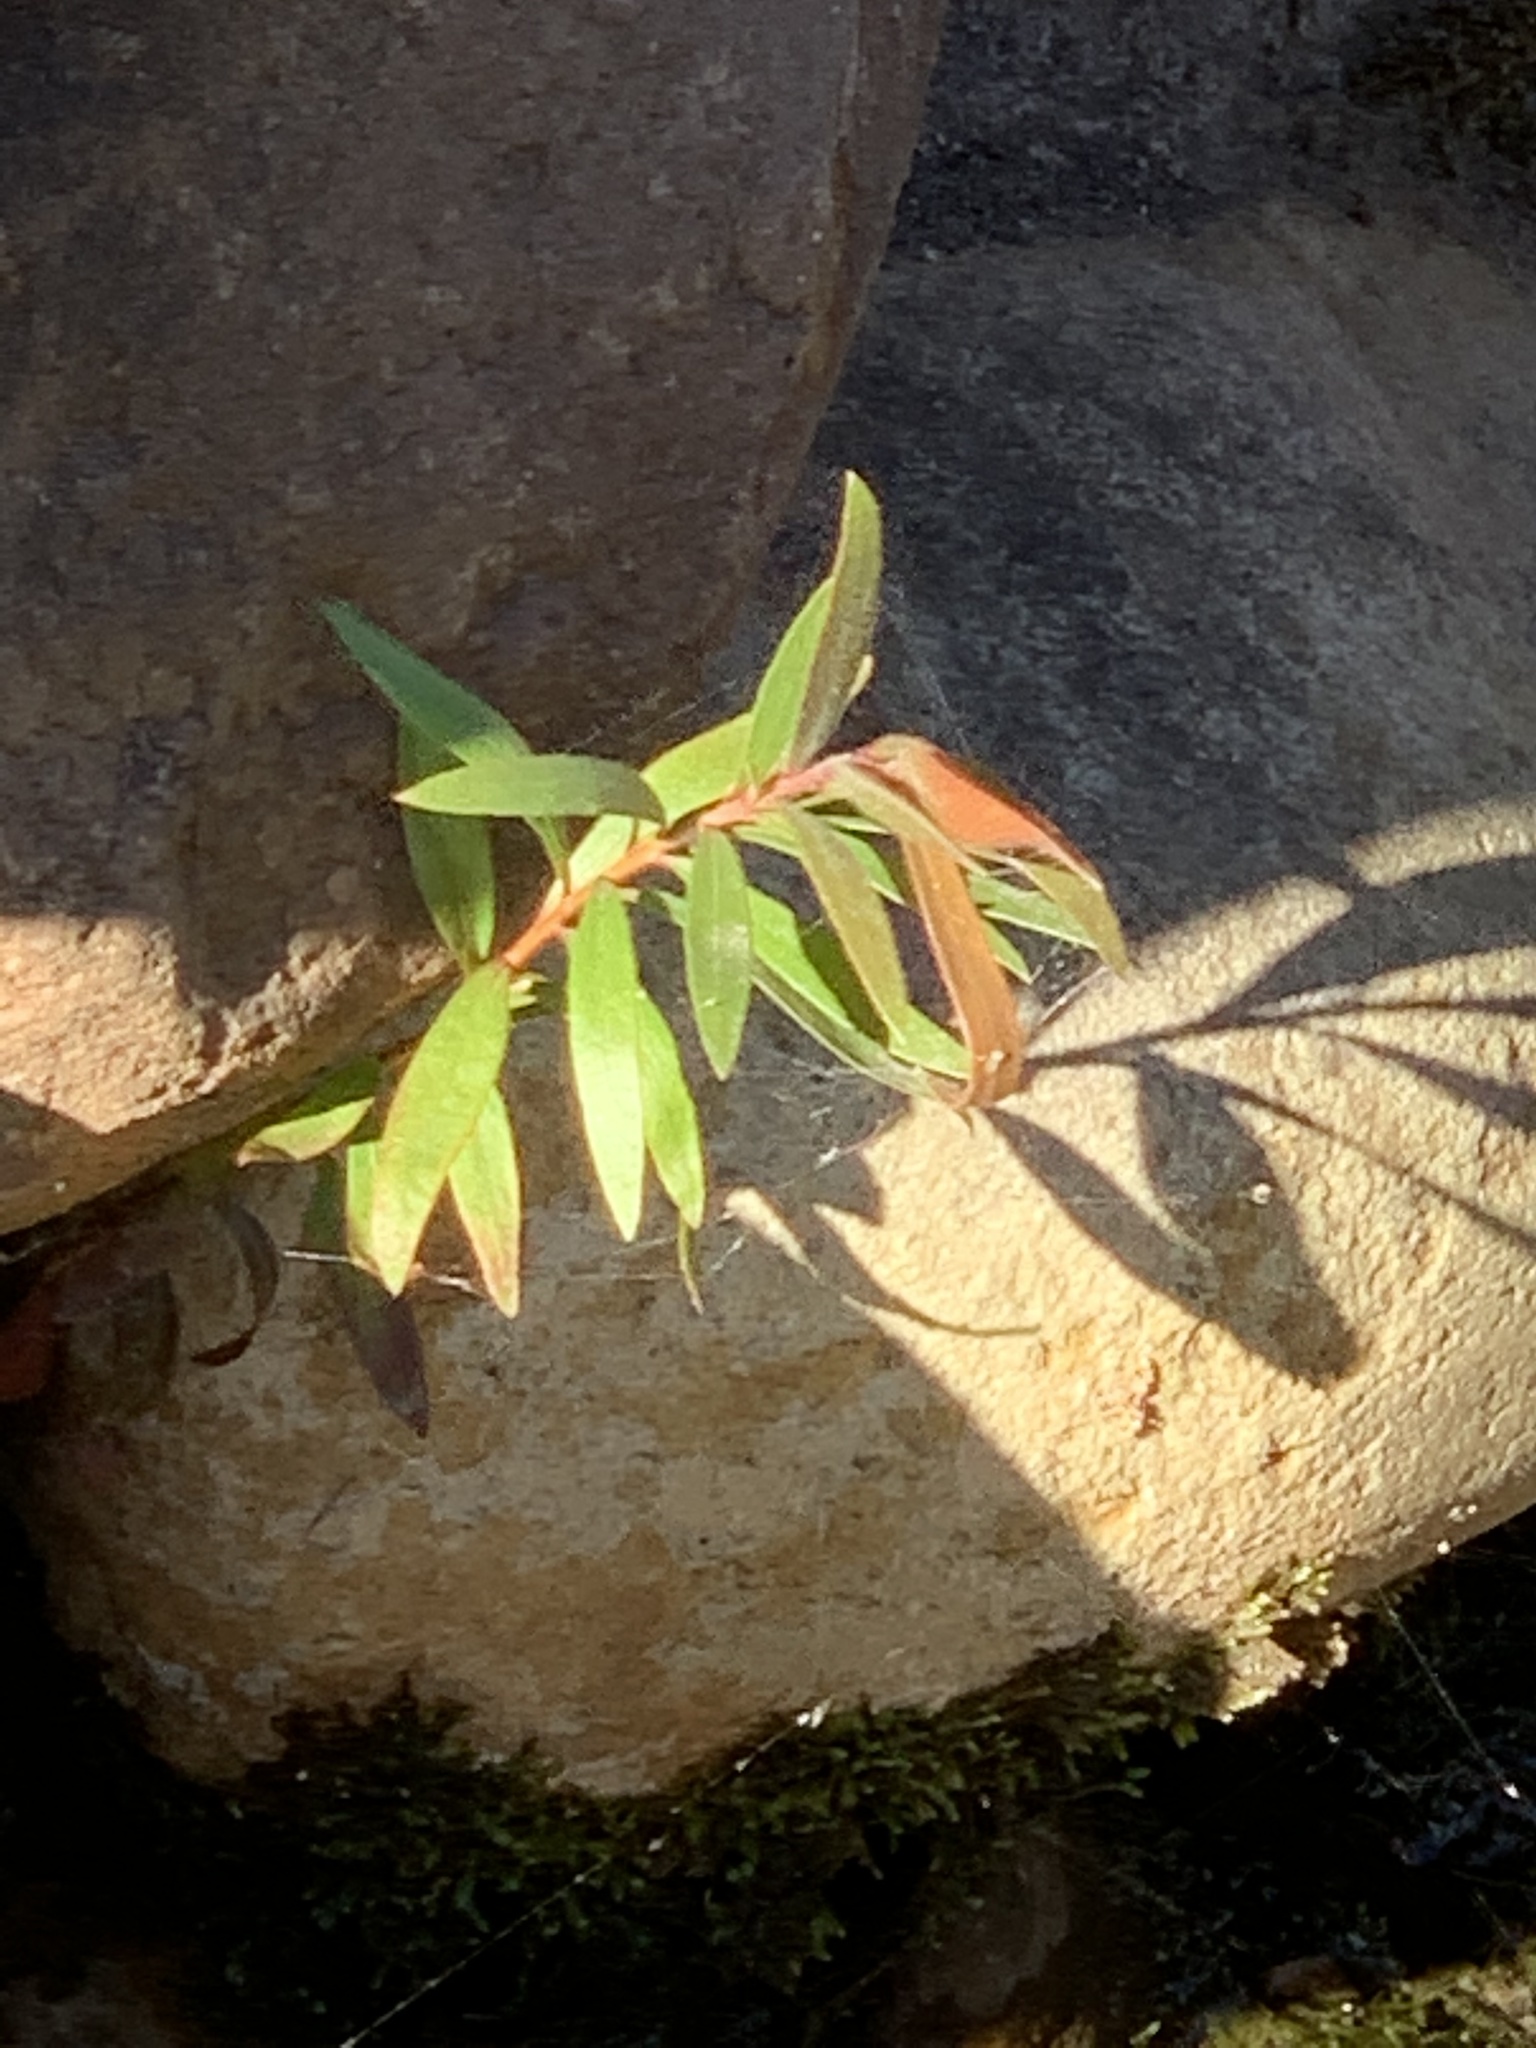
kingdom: Plantae
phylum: Tracheophyta
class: Magnoliopsida
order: Myrtales
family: Myrtaceae
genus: Callistemon
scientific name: Callistemon viminalis
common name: Drooping bottlebrush
